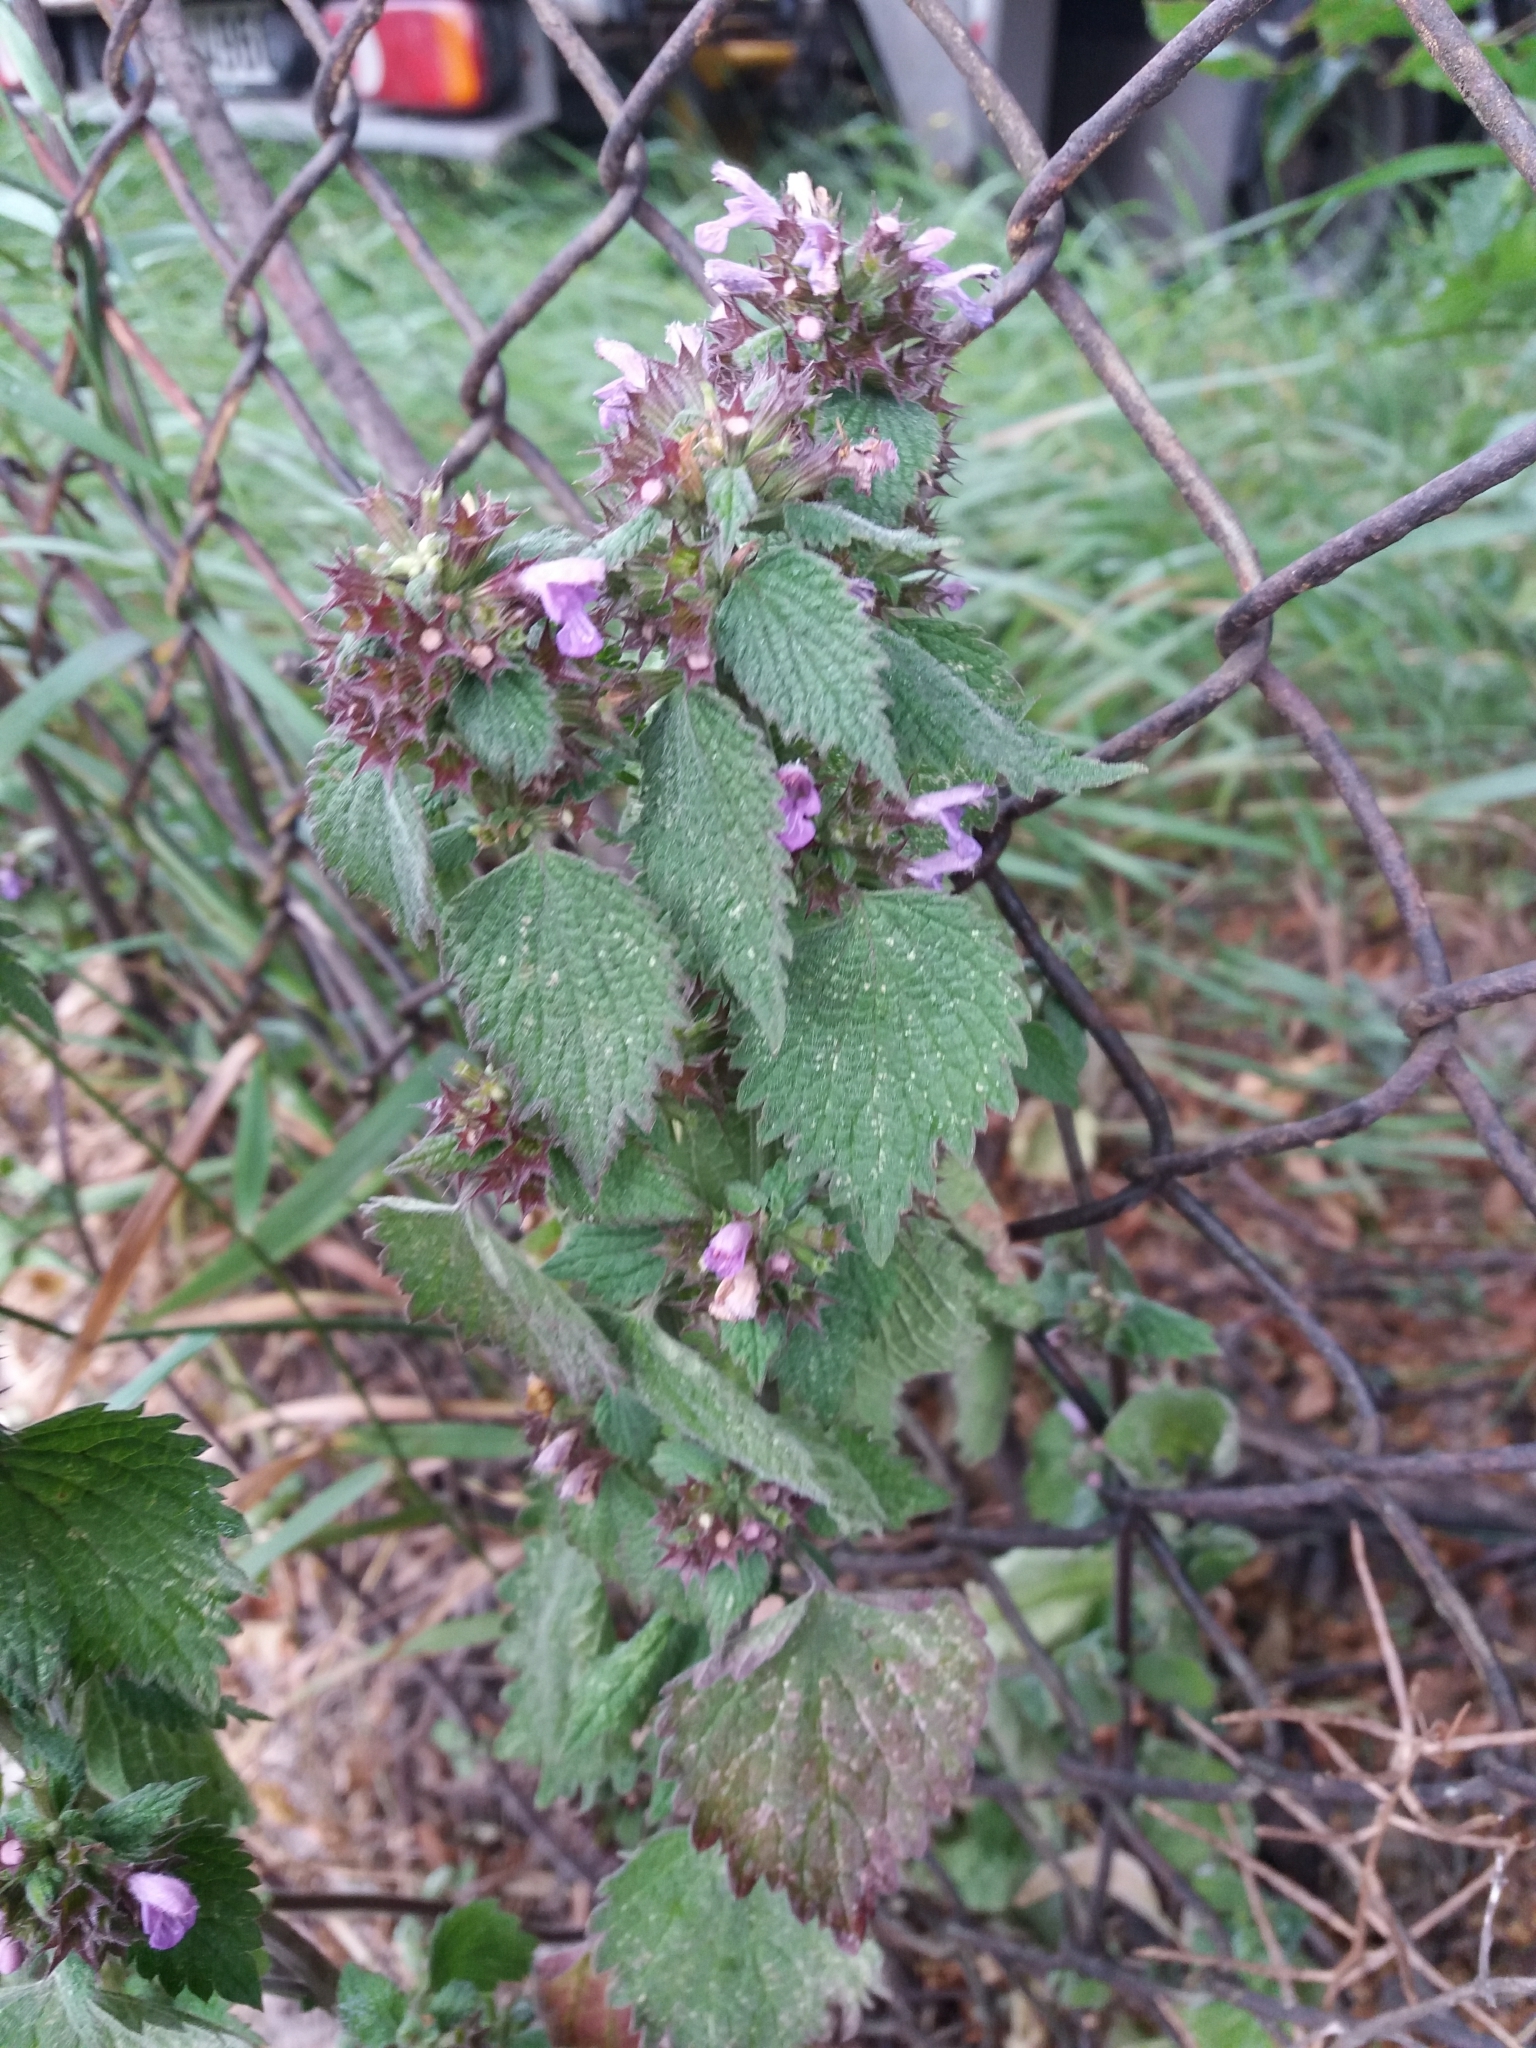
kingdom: Plantae
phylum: Tracheophyta
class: Magnoliopsida
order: Lamiales
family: Lamiaceae
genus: Ballota
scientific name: Ballota nigra
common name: Black horehound
